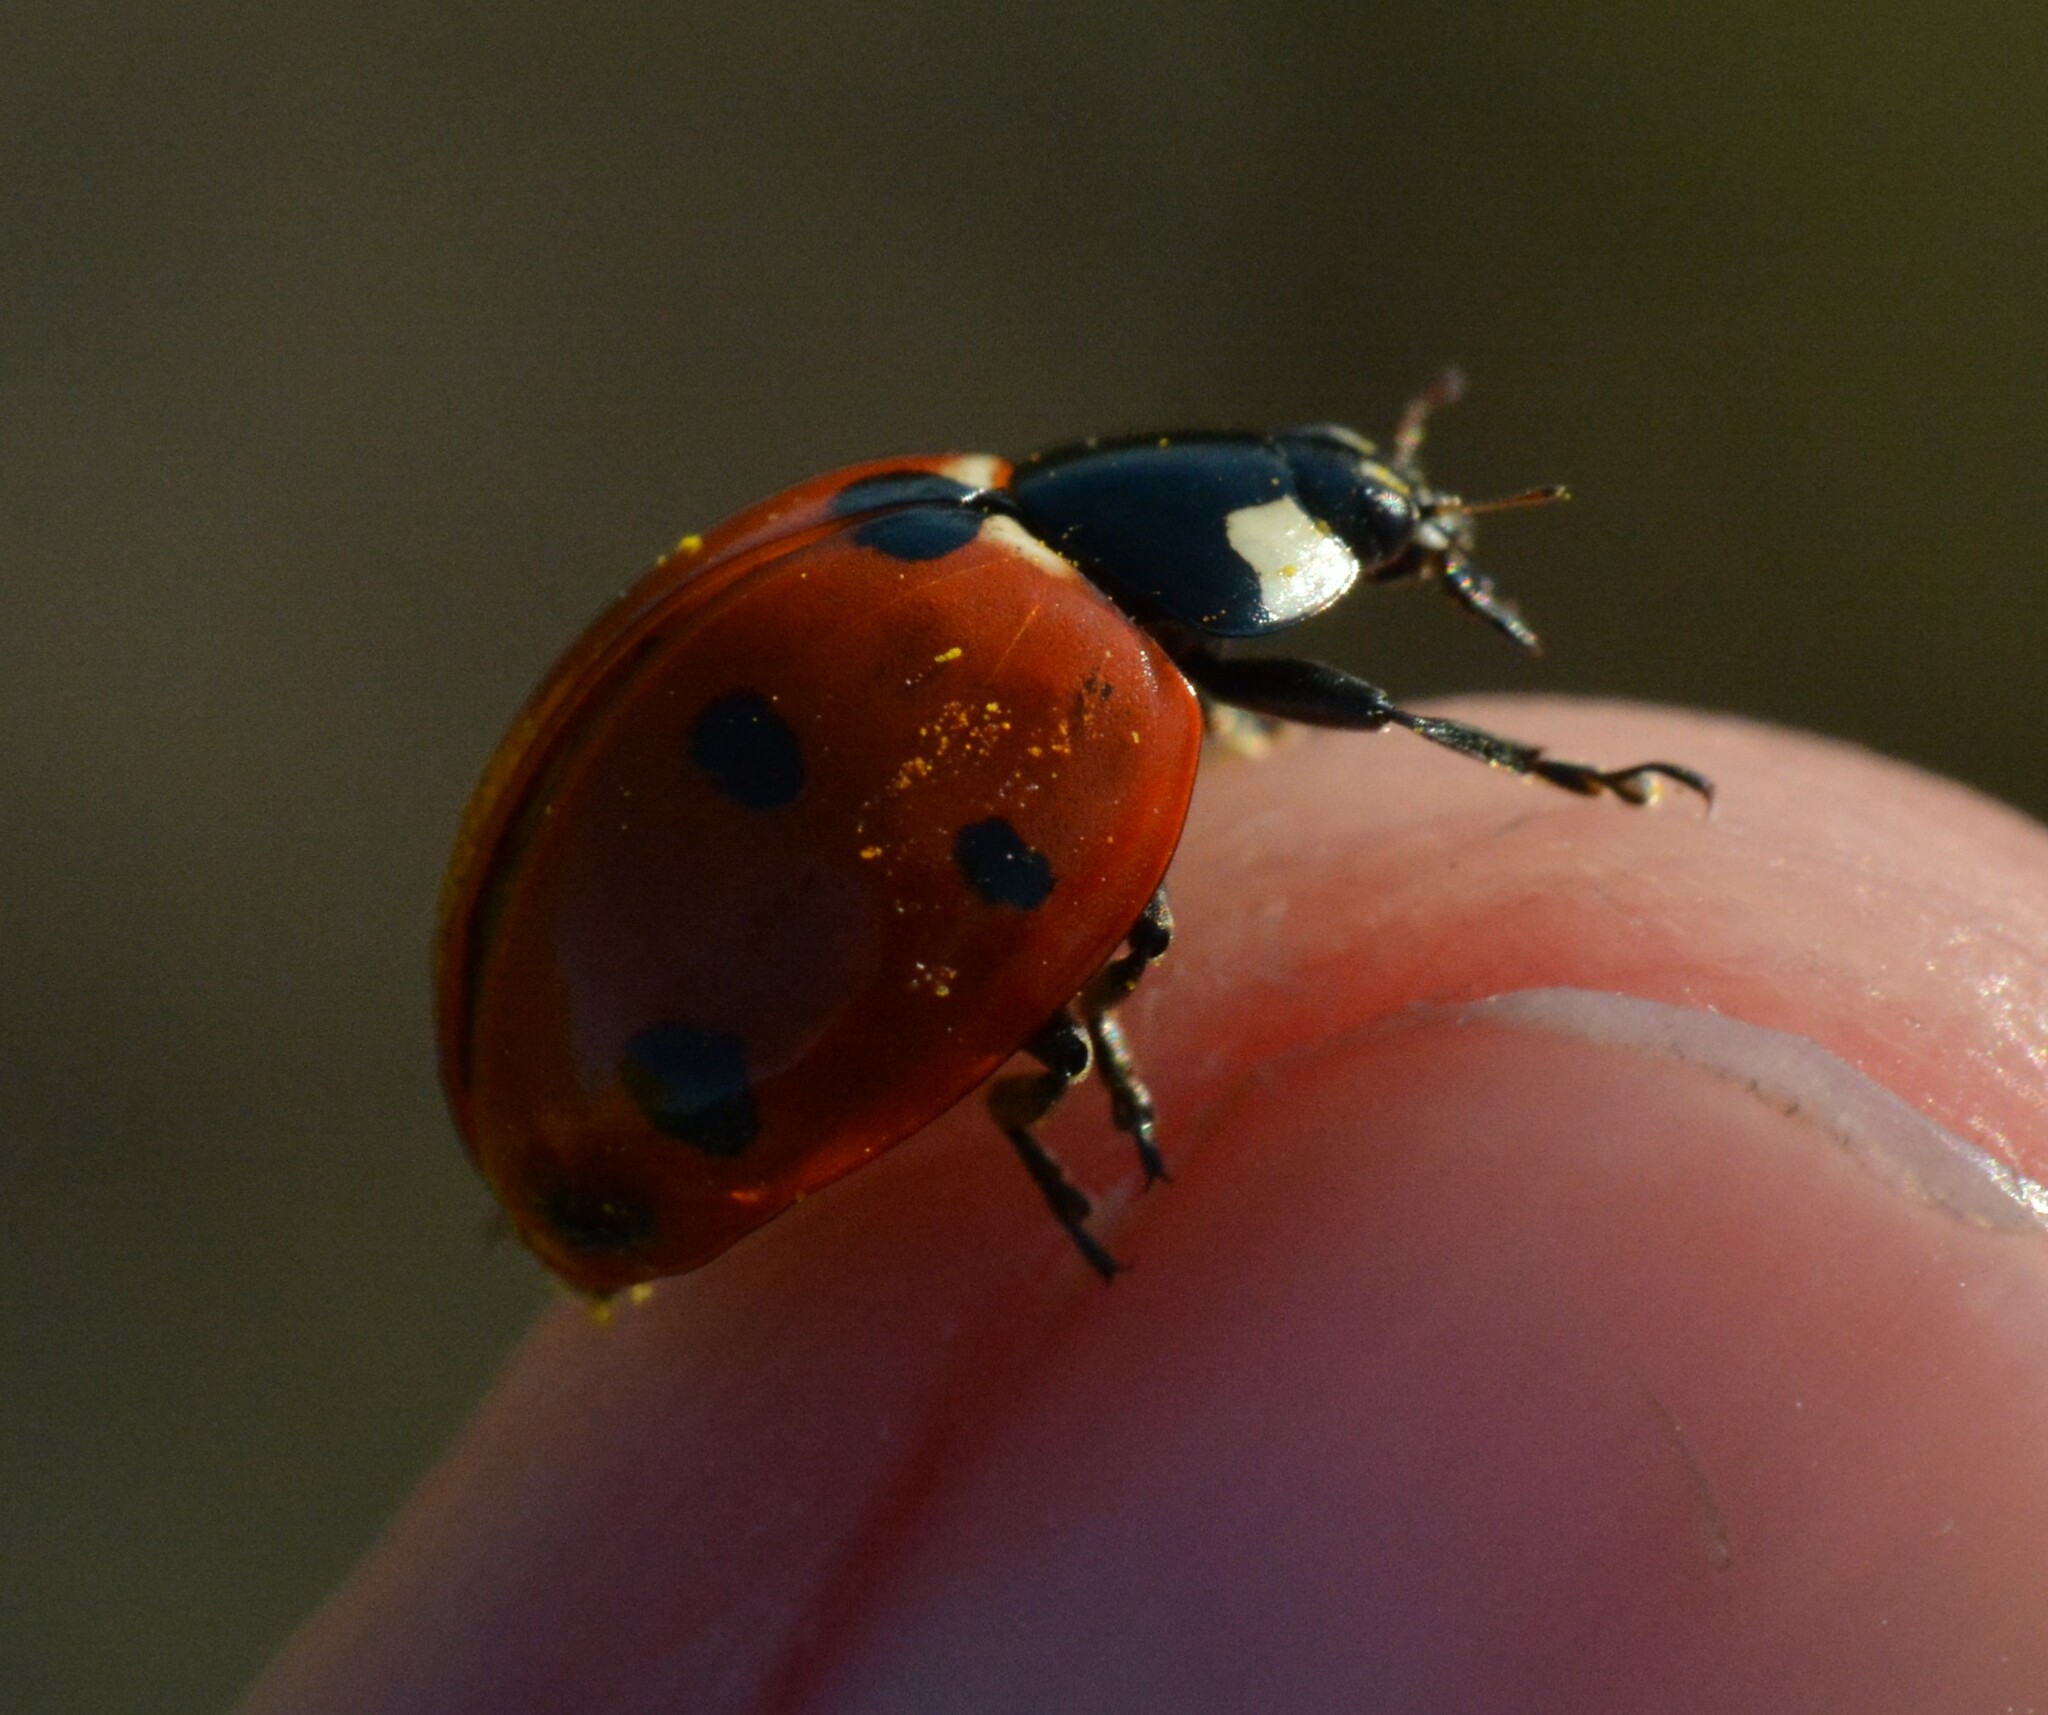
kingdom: Animalia
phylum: Arthropoda
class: Insecta
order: Coleoptera
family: Coccinellidae
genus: Coccinella
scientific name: Coccinella septempunctata
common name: Sevenspotted lady beetle
